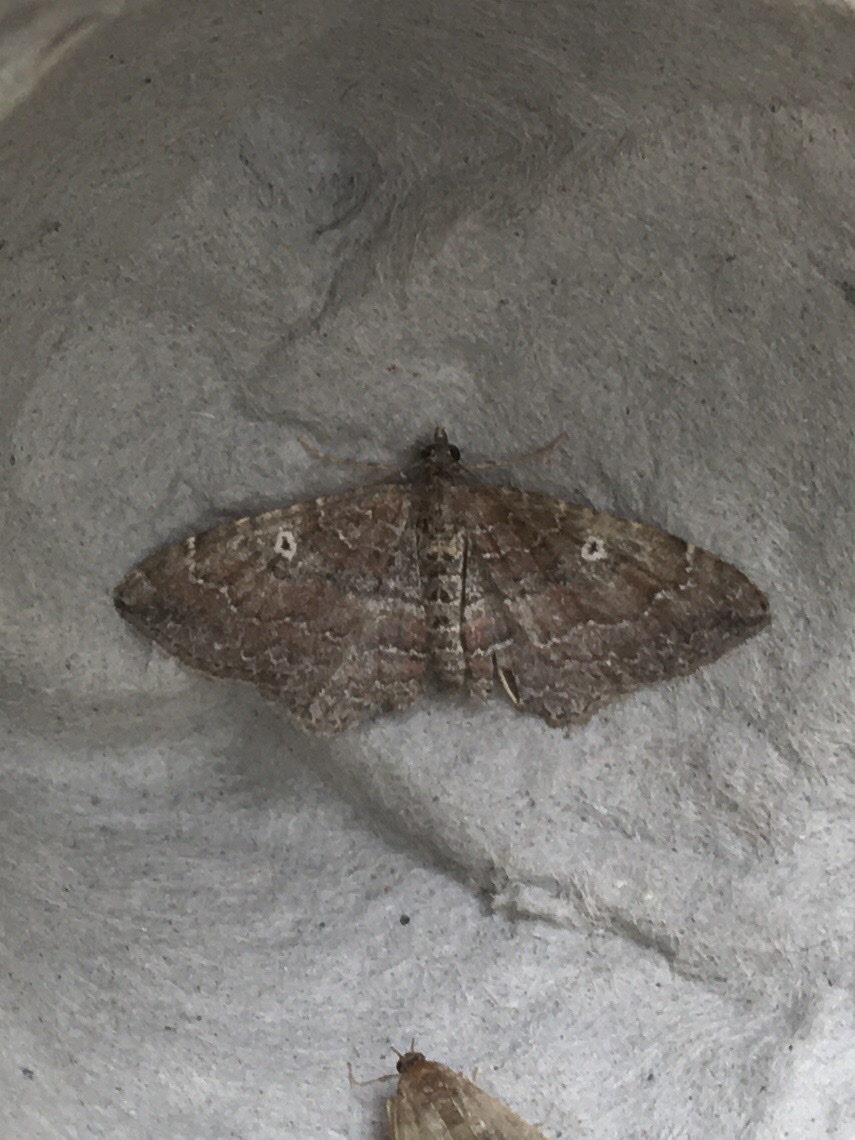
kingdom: Animalia
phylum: Arthropoda
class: Insecta
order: Lepidoptera
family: Geometridae
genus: Orthonama
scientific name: Orthonama obstipata
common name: The gem
